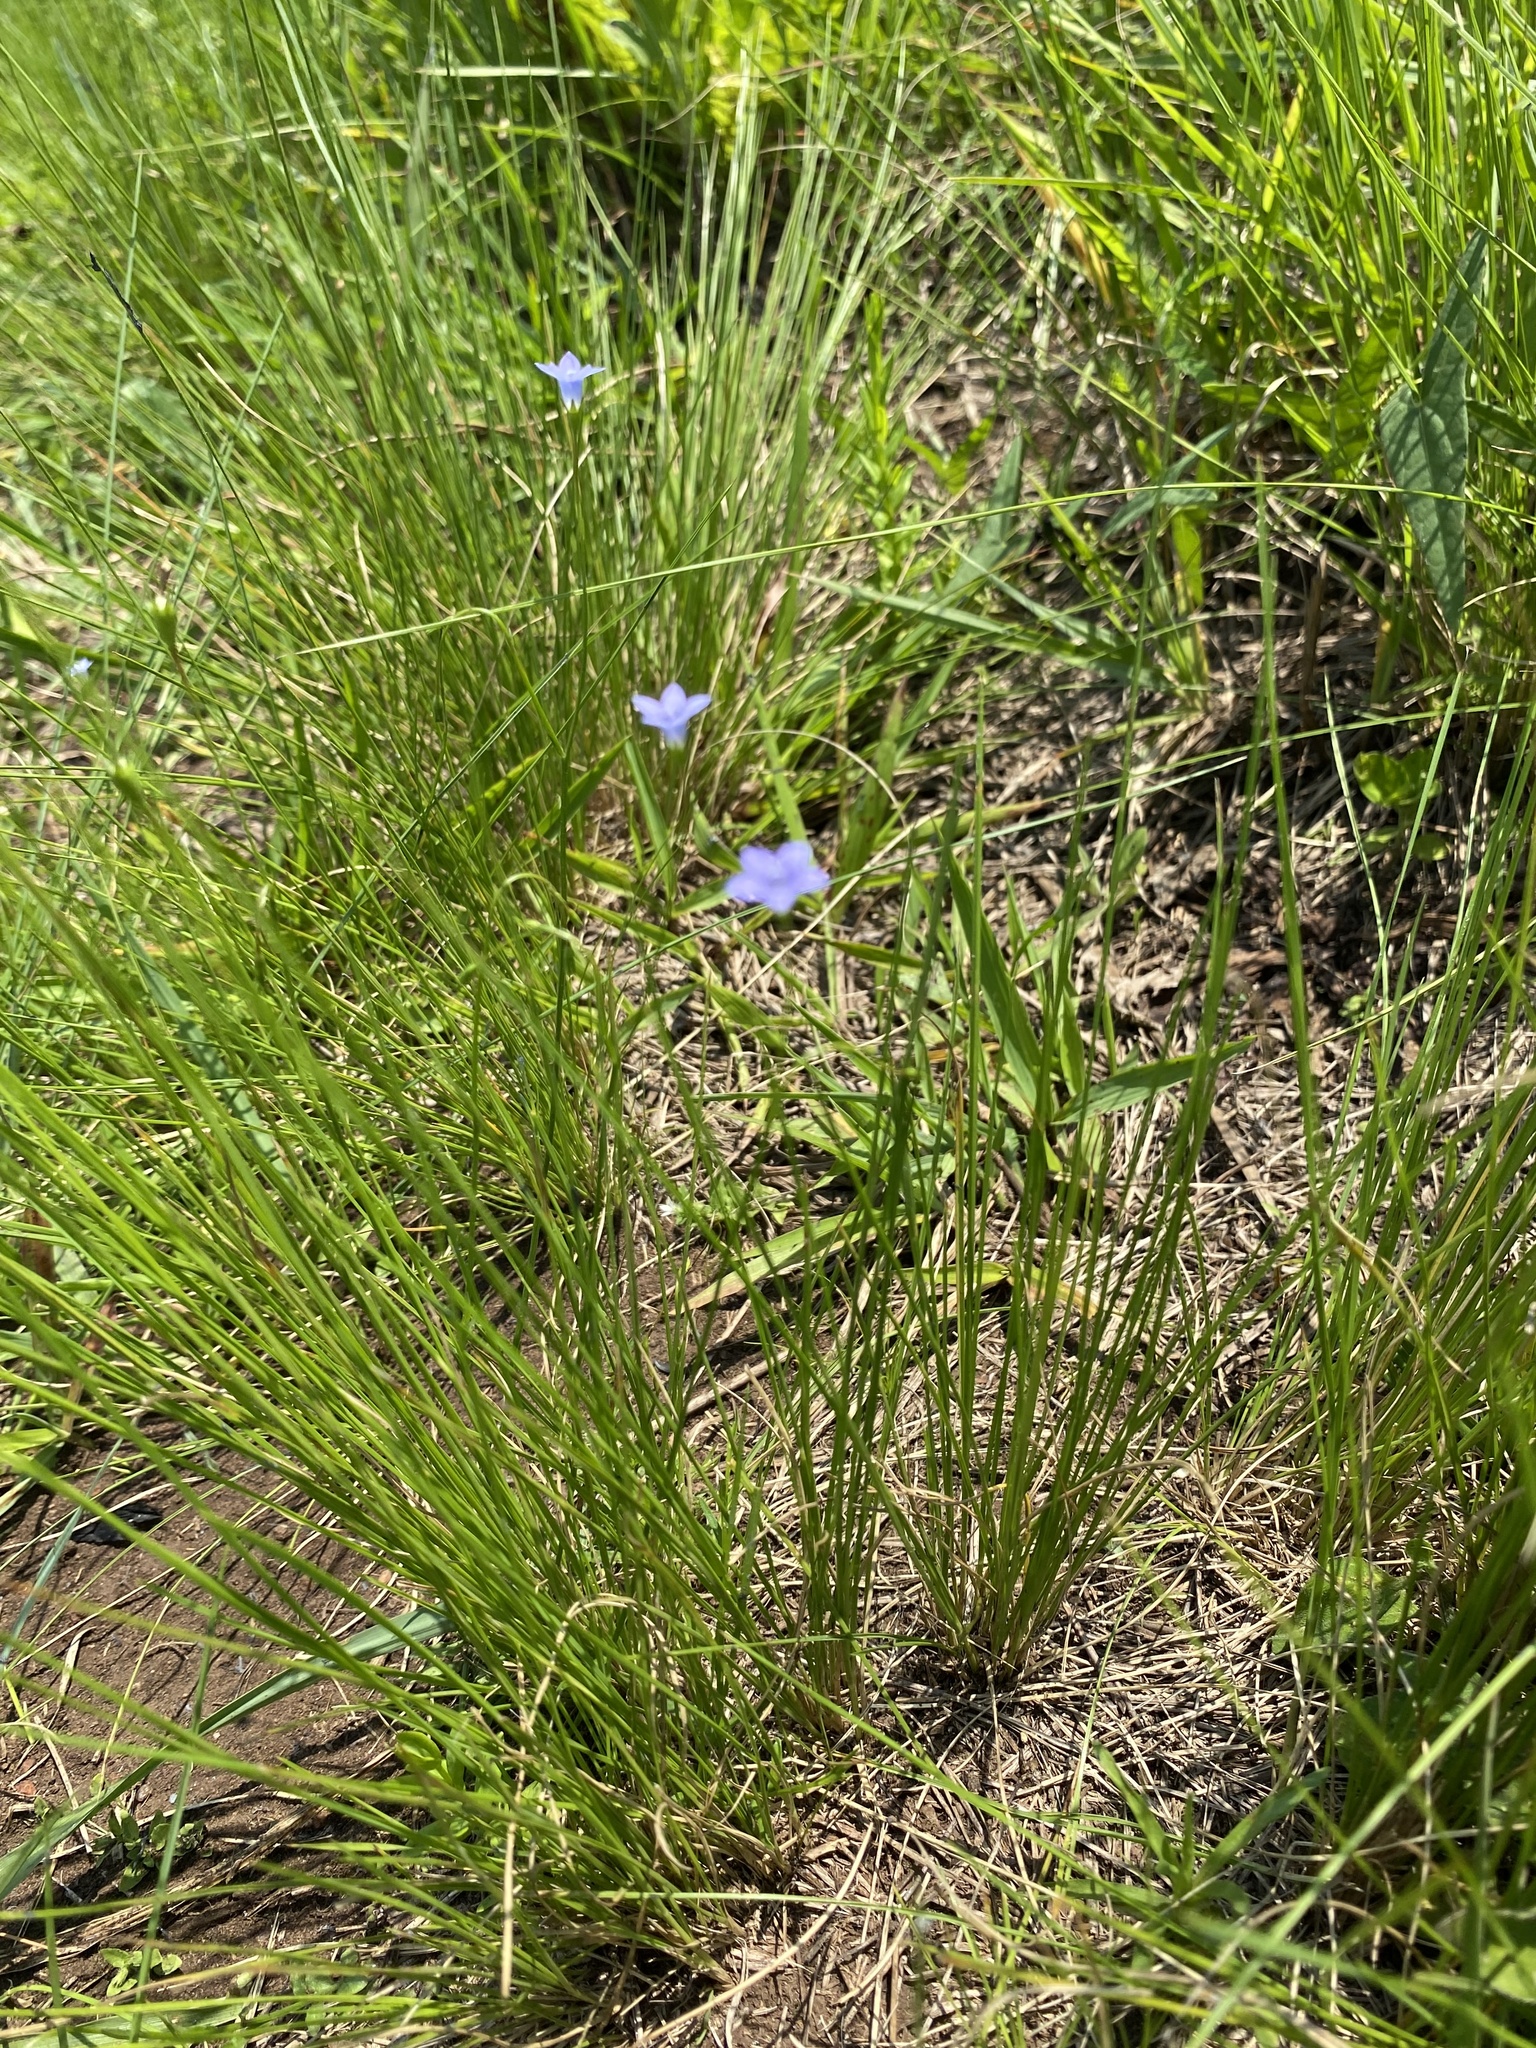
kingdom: Plantae
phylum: Tracheophyta
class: Magnoliopsida
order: Asterales
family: Campanulaceae
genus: Wahlenbergia
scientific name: Wahlenbergia krebsii
